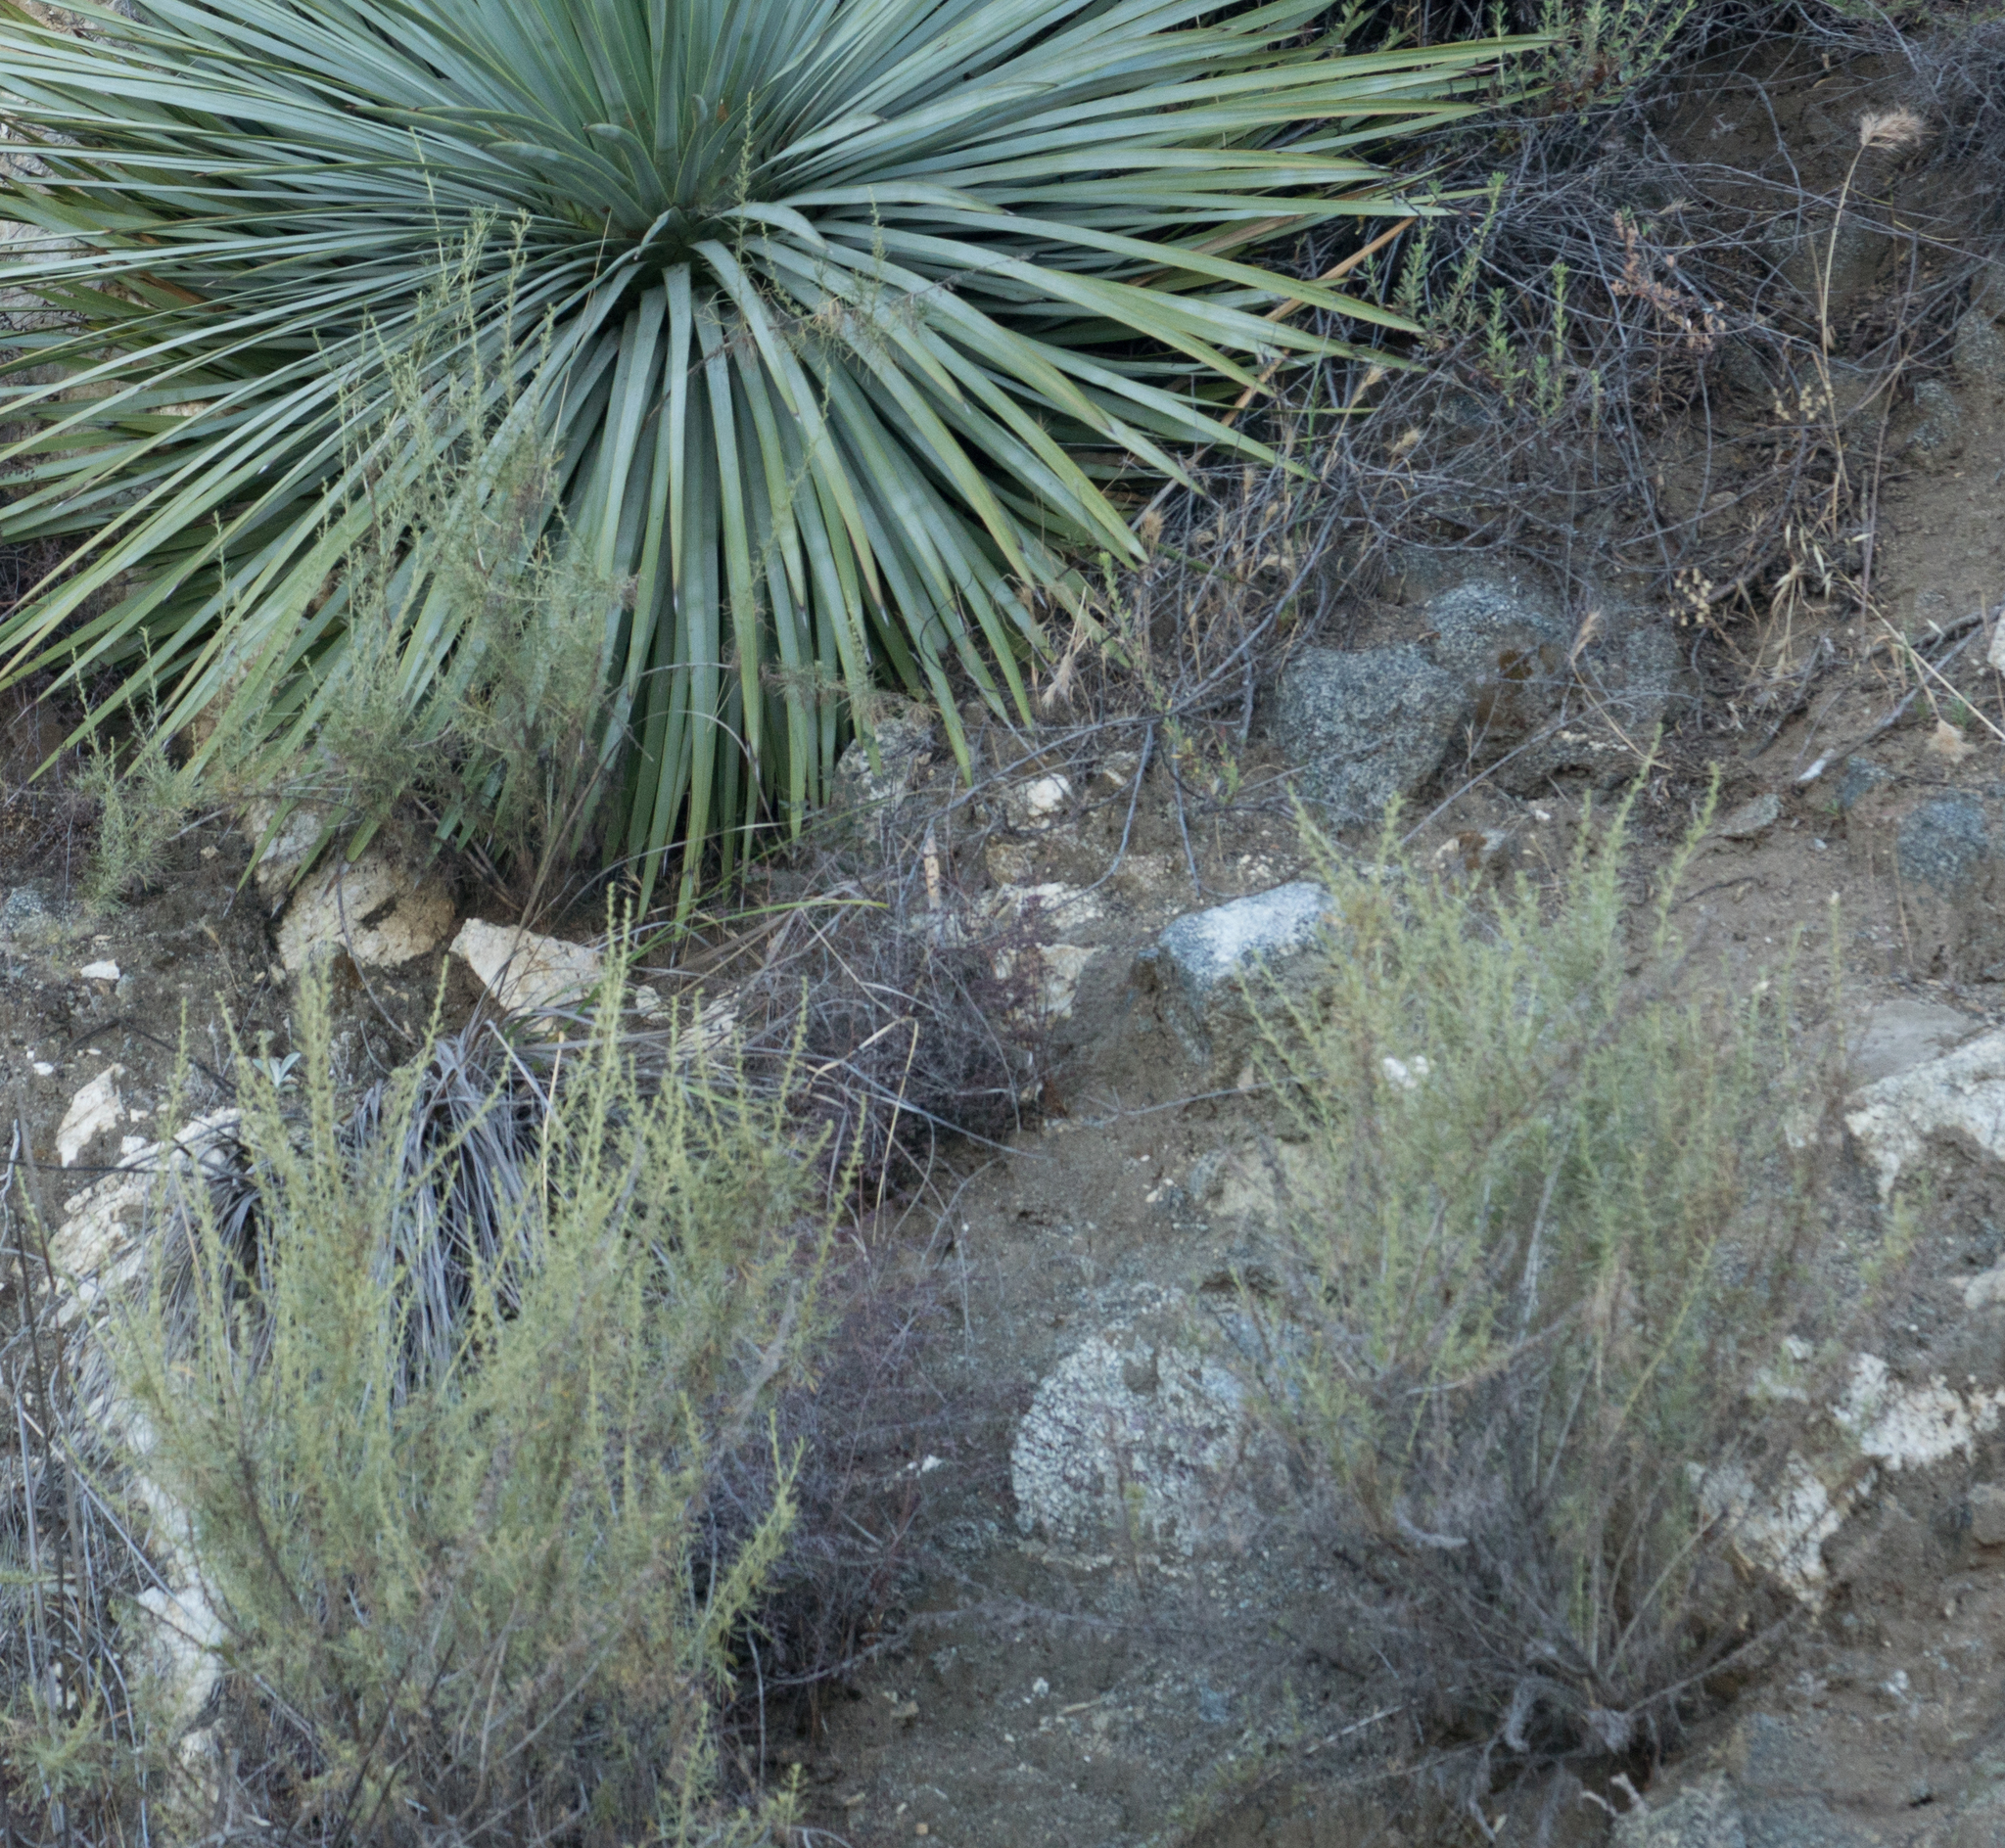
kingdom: Plantae
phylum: Tracheophyta
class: Magnoliopsida
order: Asterales
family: Asteraceae
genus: Artemisia
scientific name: Artemisia californica
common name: California sagebrush
